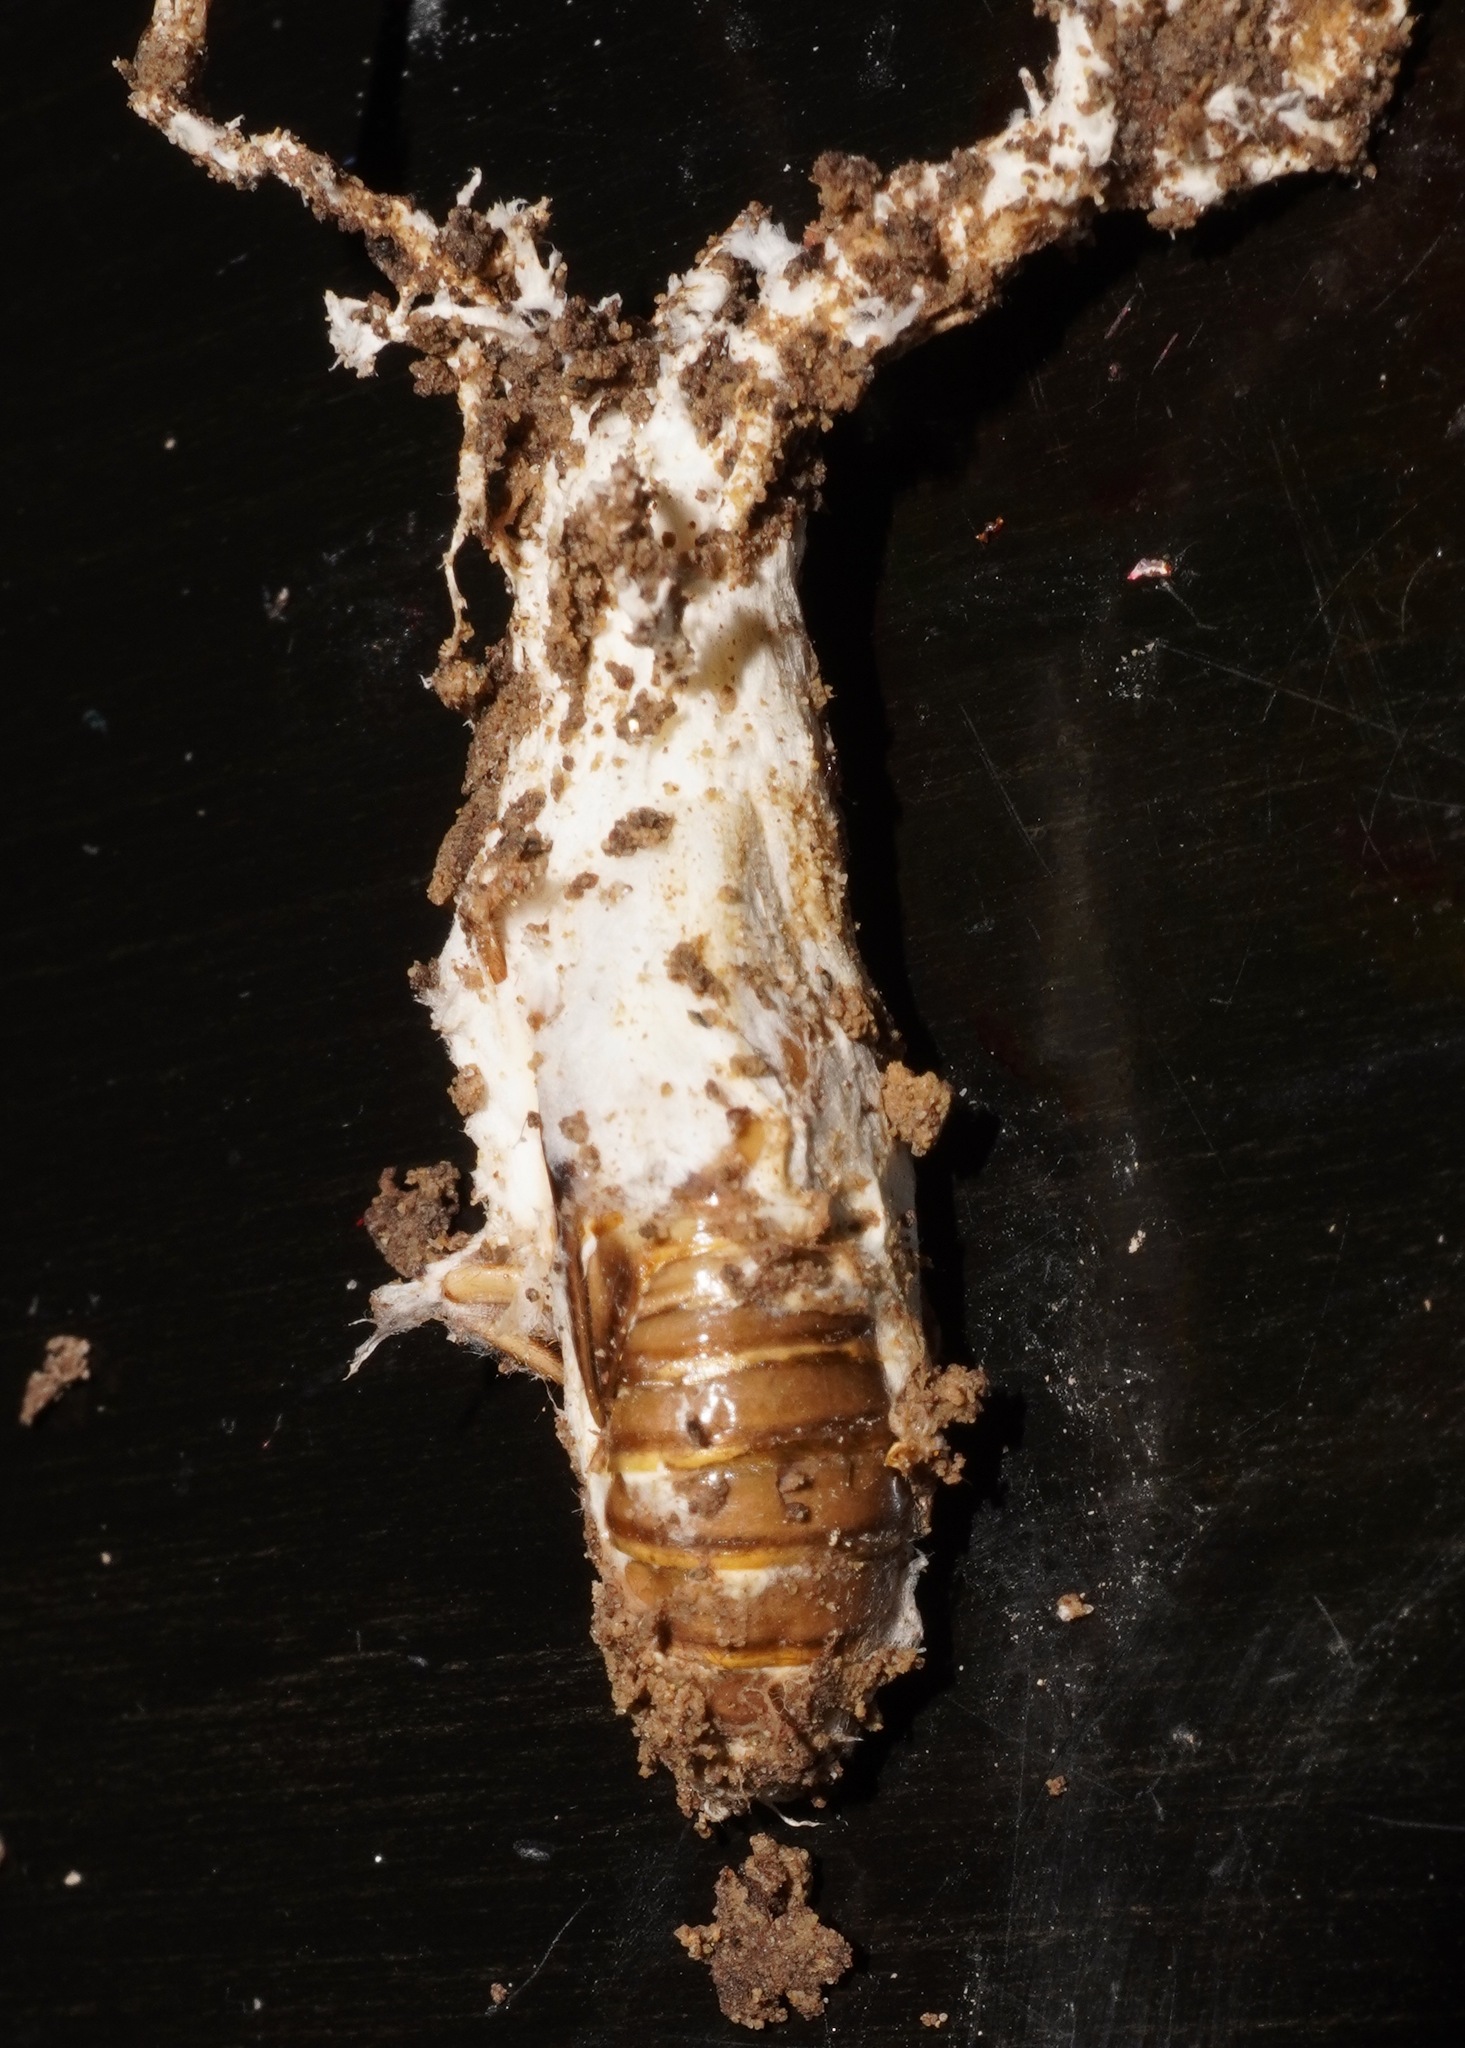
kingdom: Fungi
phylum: Ascomycota
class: Sordariomycetes
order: Hypocreales
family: Cordycipitaceae
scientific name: Cordycipitaceae
